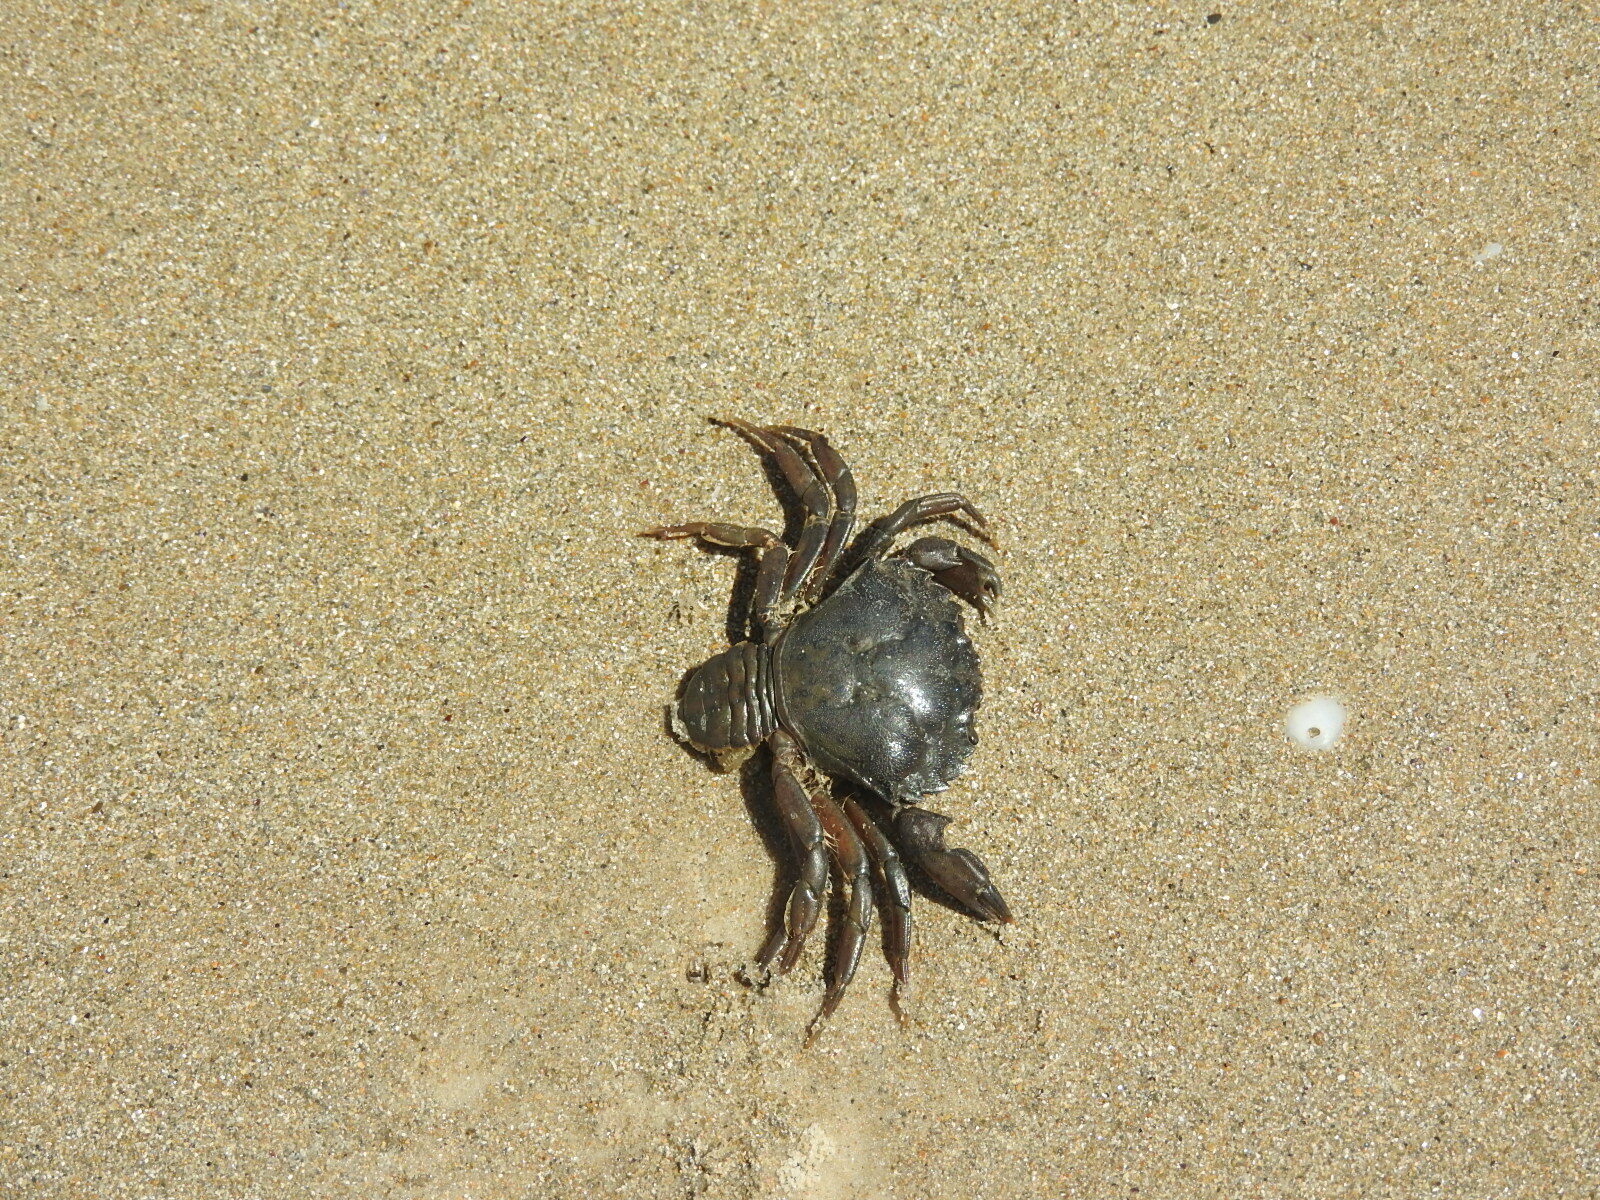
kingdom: Animalia
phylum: Arthropoda
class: Malacostraca
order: Decapoda
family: Carcinidae
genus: Carcinus
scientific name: Carcinus maenas
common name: European green crab
